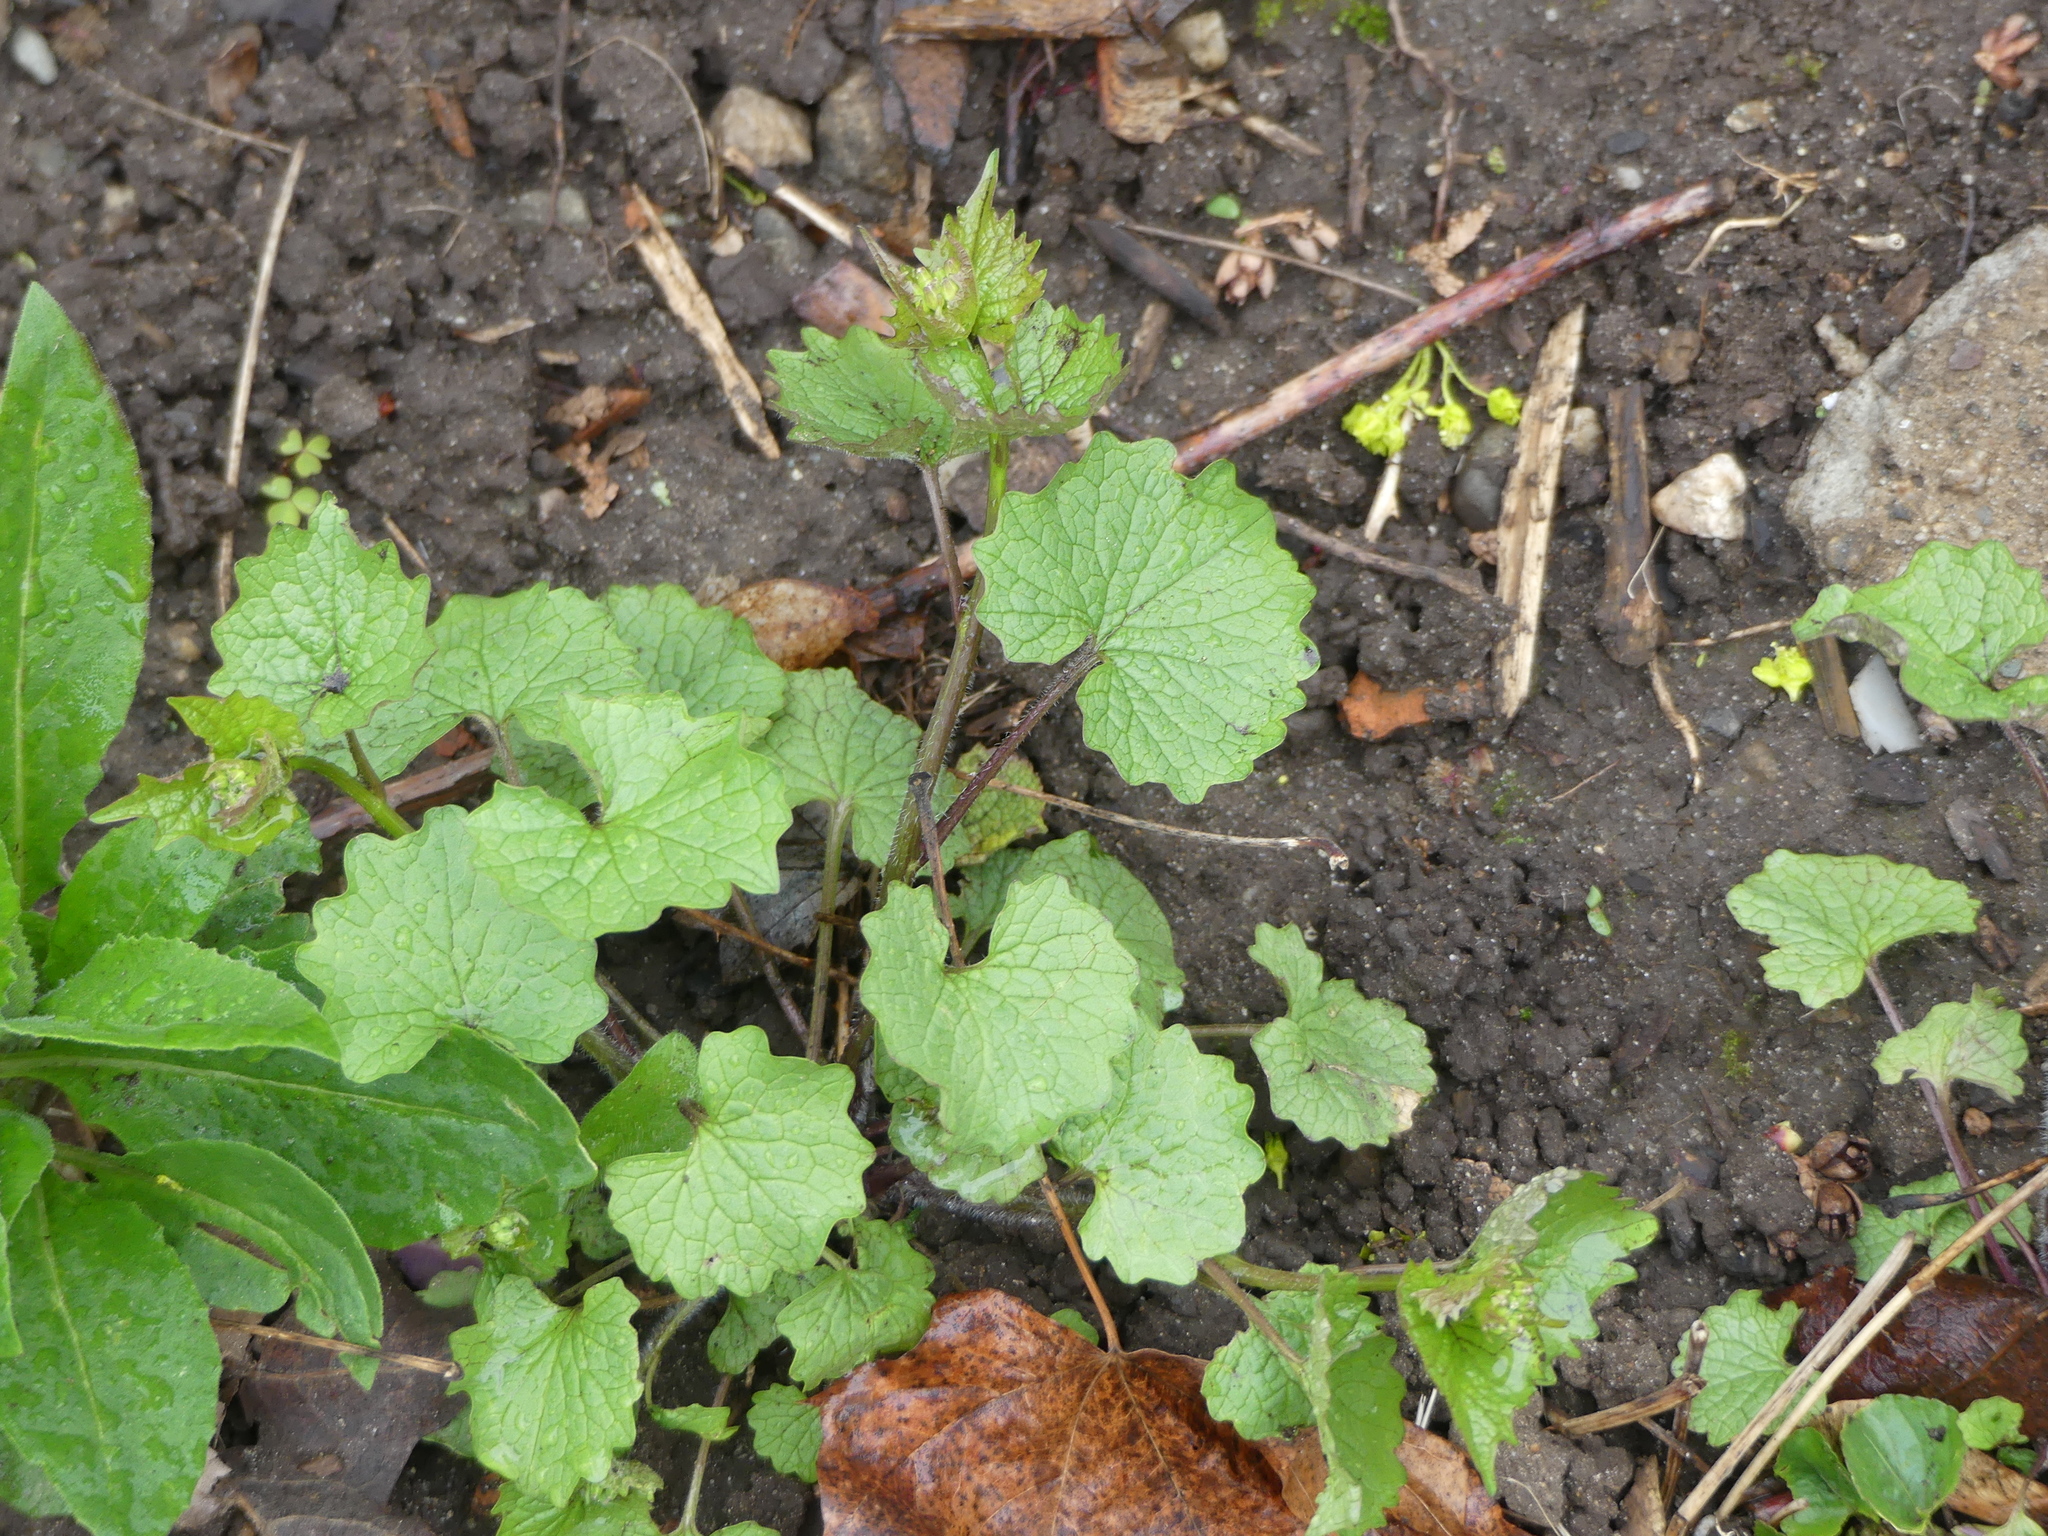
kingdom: Plantae
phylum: Tracheophyta
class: Magnoliopsida
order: Brassicales
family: Brassicaceae
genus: Alliaria
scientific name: Alliaria petiolata
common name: Garlic mustard
